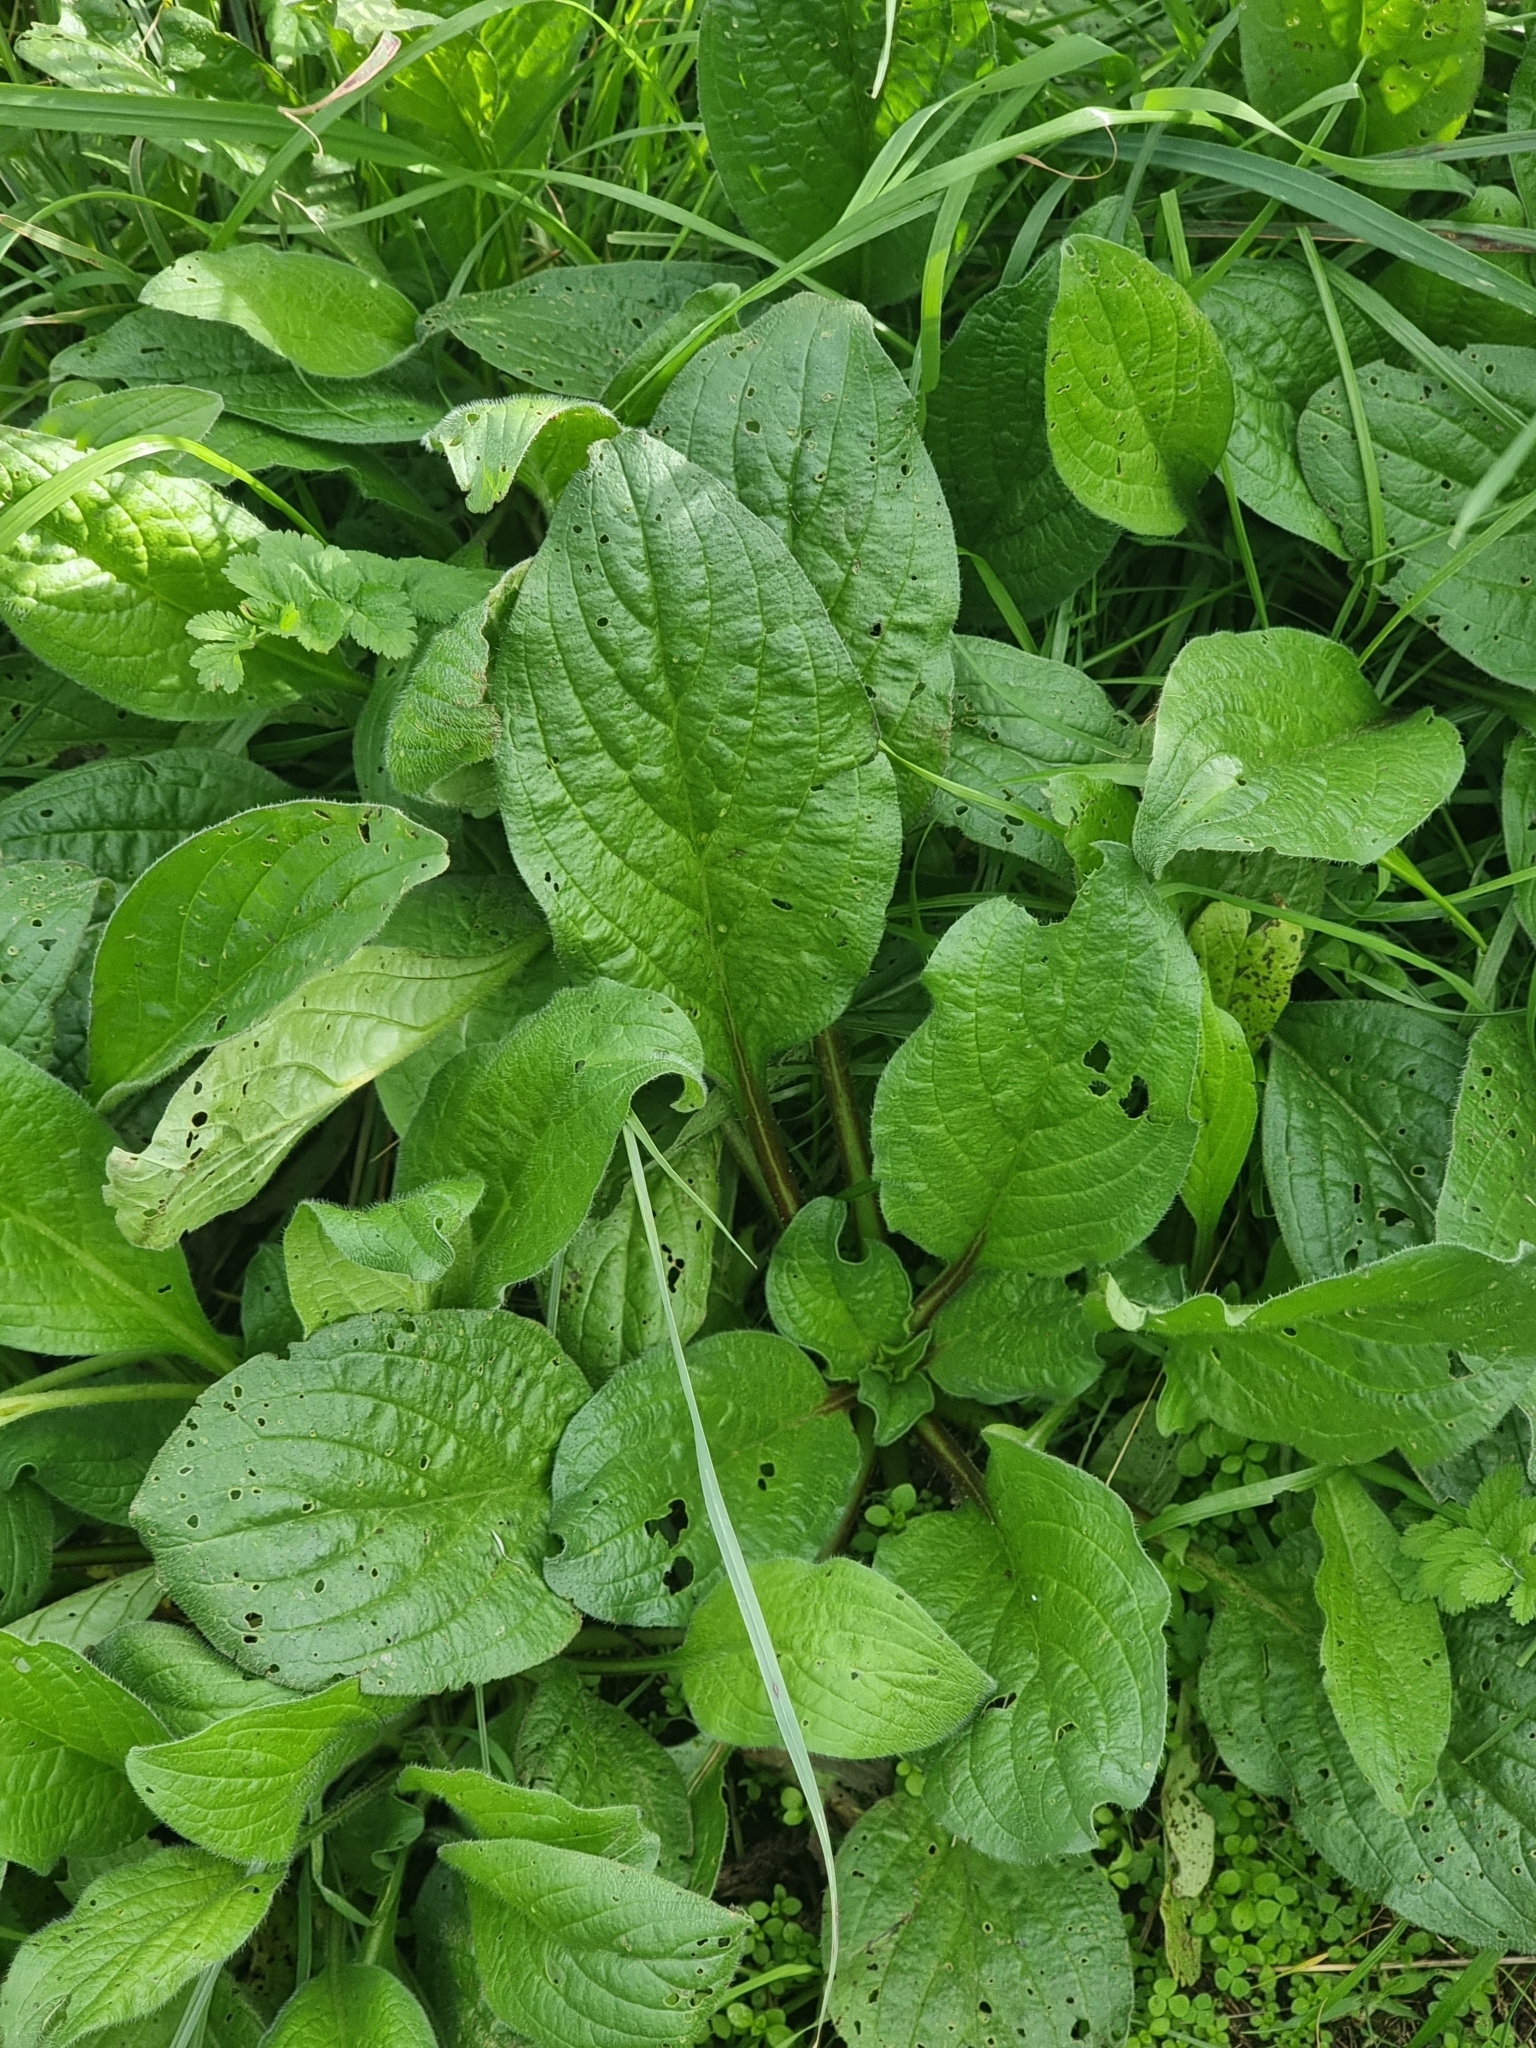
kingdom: Plantae
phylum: Tracheophyta
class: Magnoliopsida
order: Lamiales
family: Plantaginaceae
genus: Plantago
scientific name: Plantago major
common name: Common plantain
